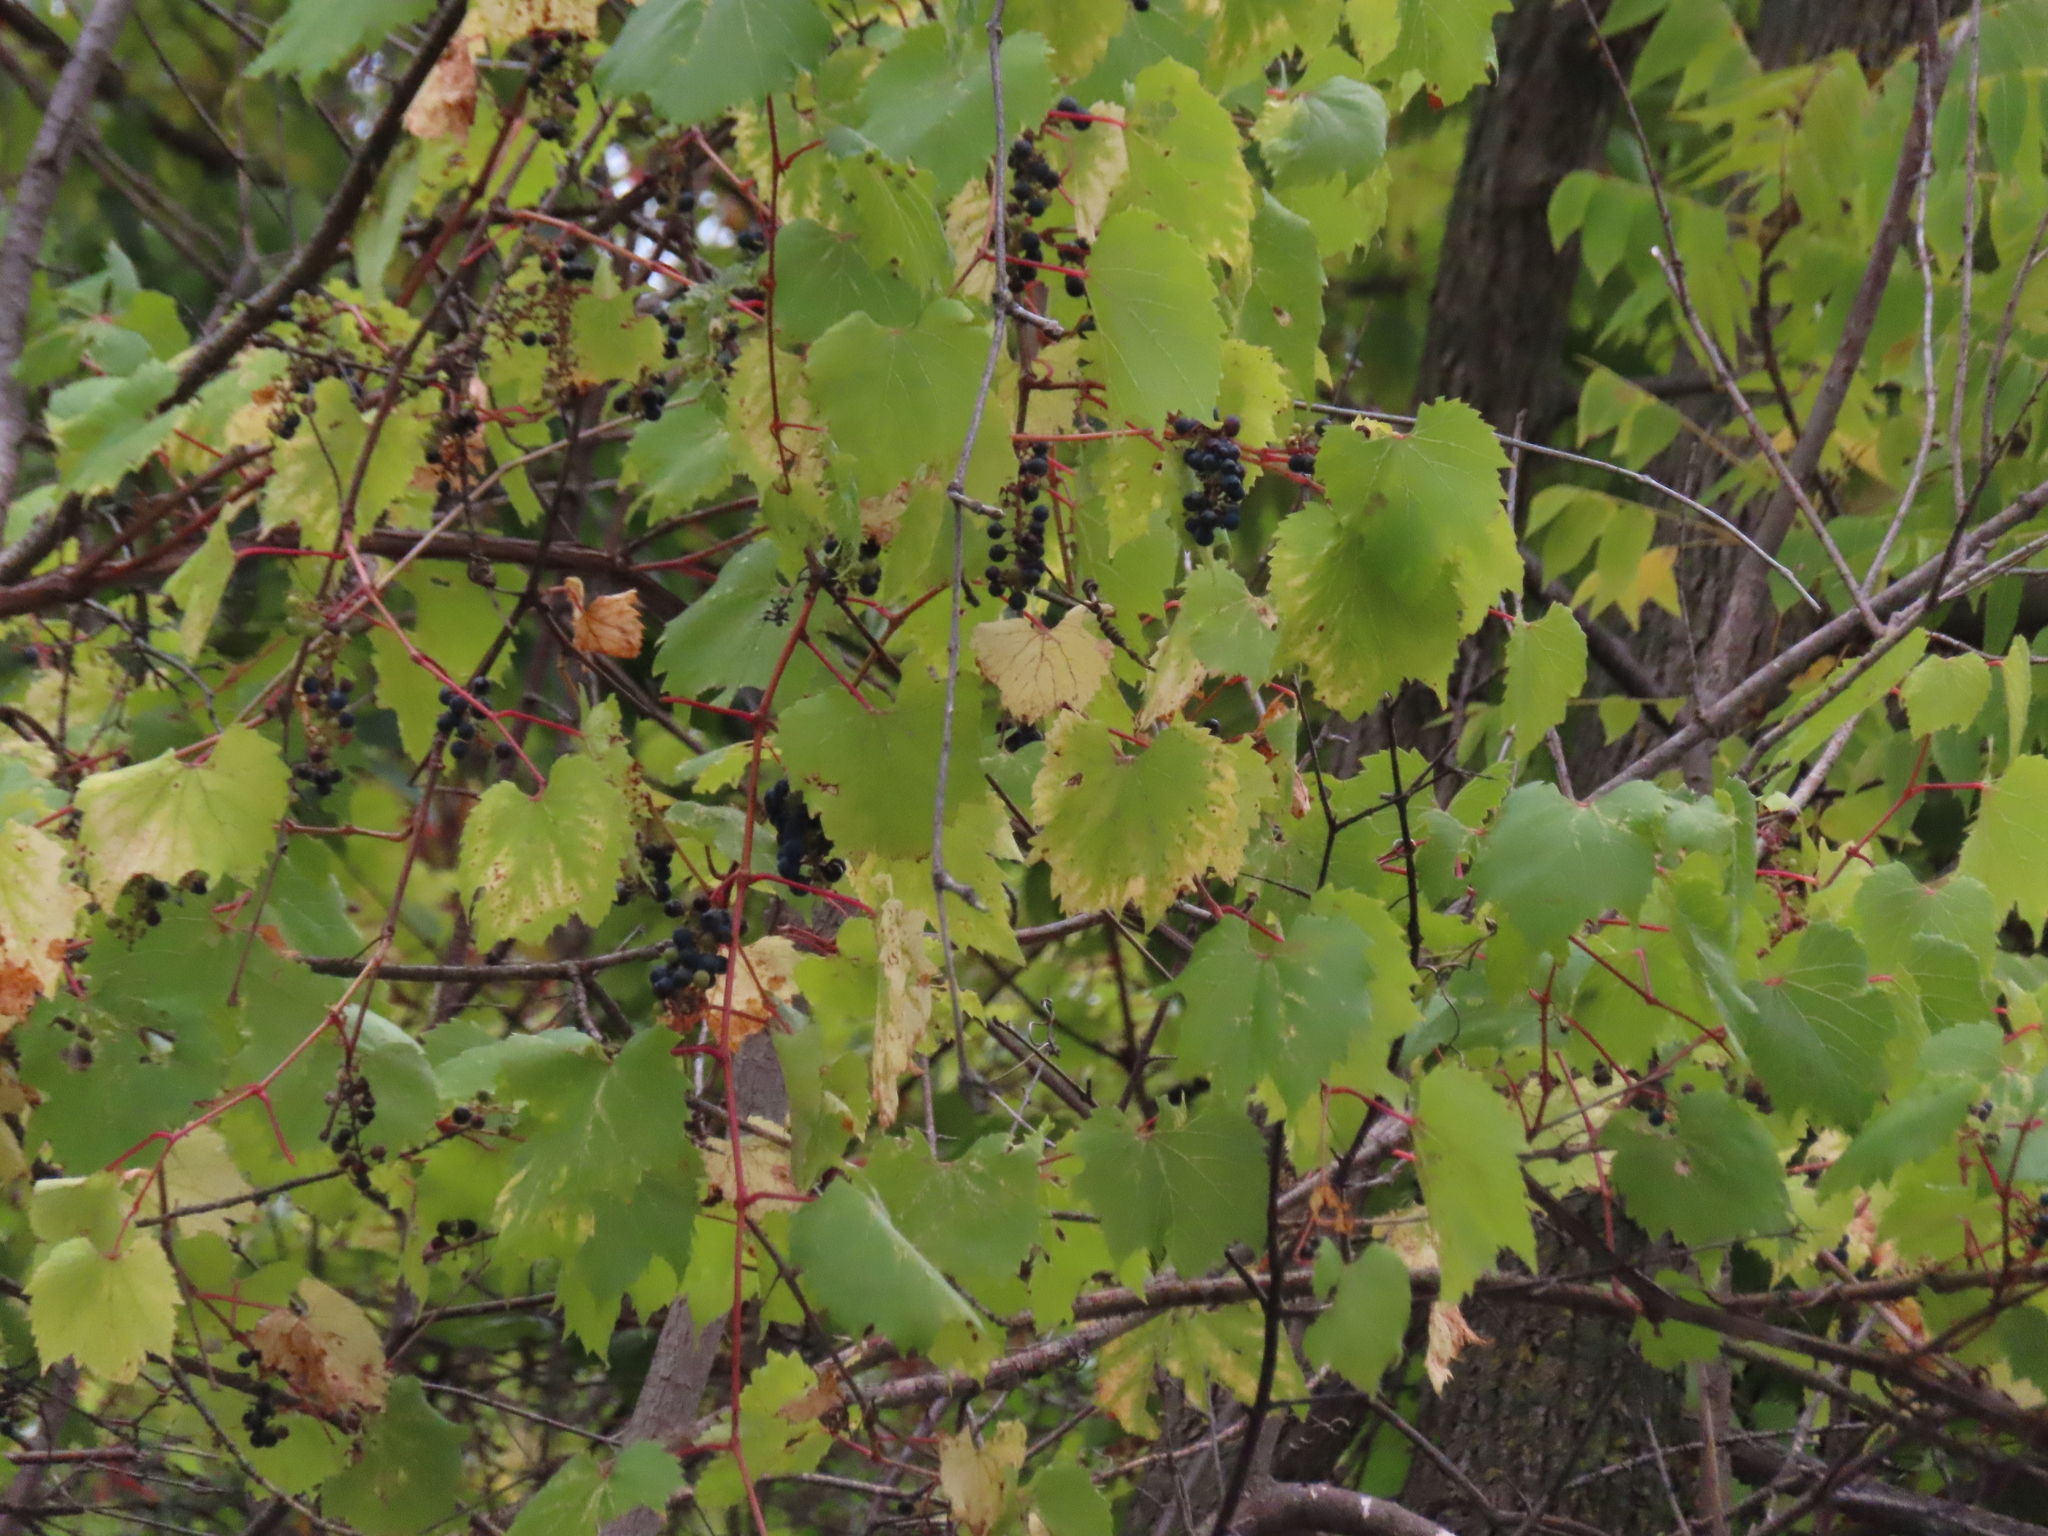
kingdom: Plantae
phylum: Tracheophyta
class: Magnoliopsida
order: Vitales
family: Vitaceae
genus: Vitis
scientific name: Vitis riparia
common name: Frost grape
